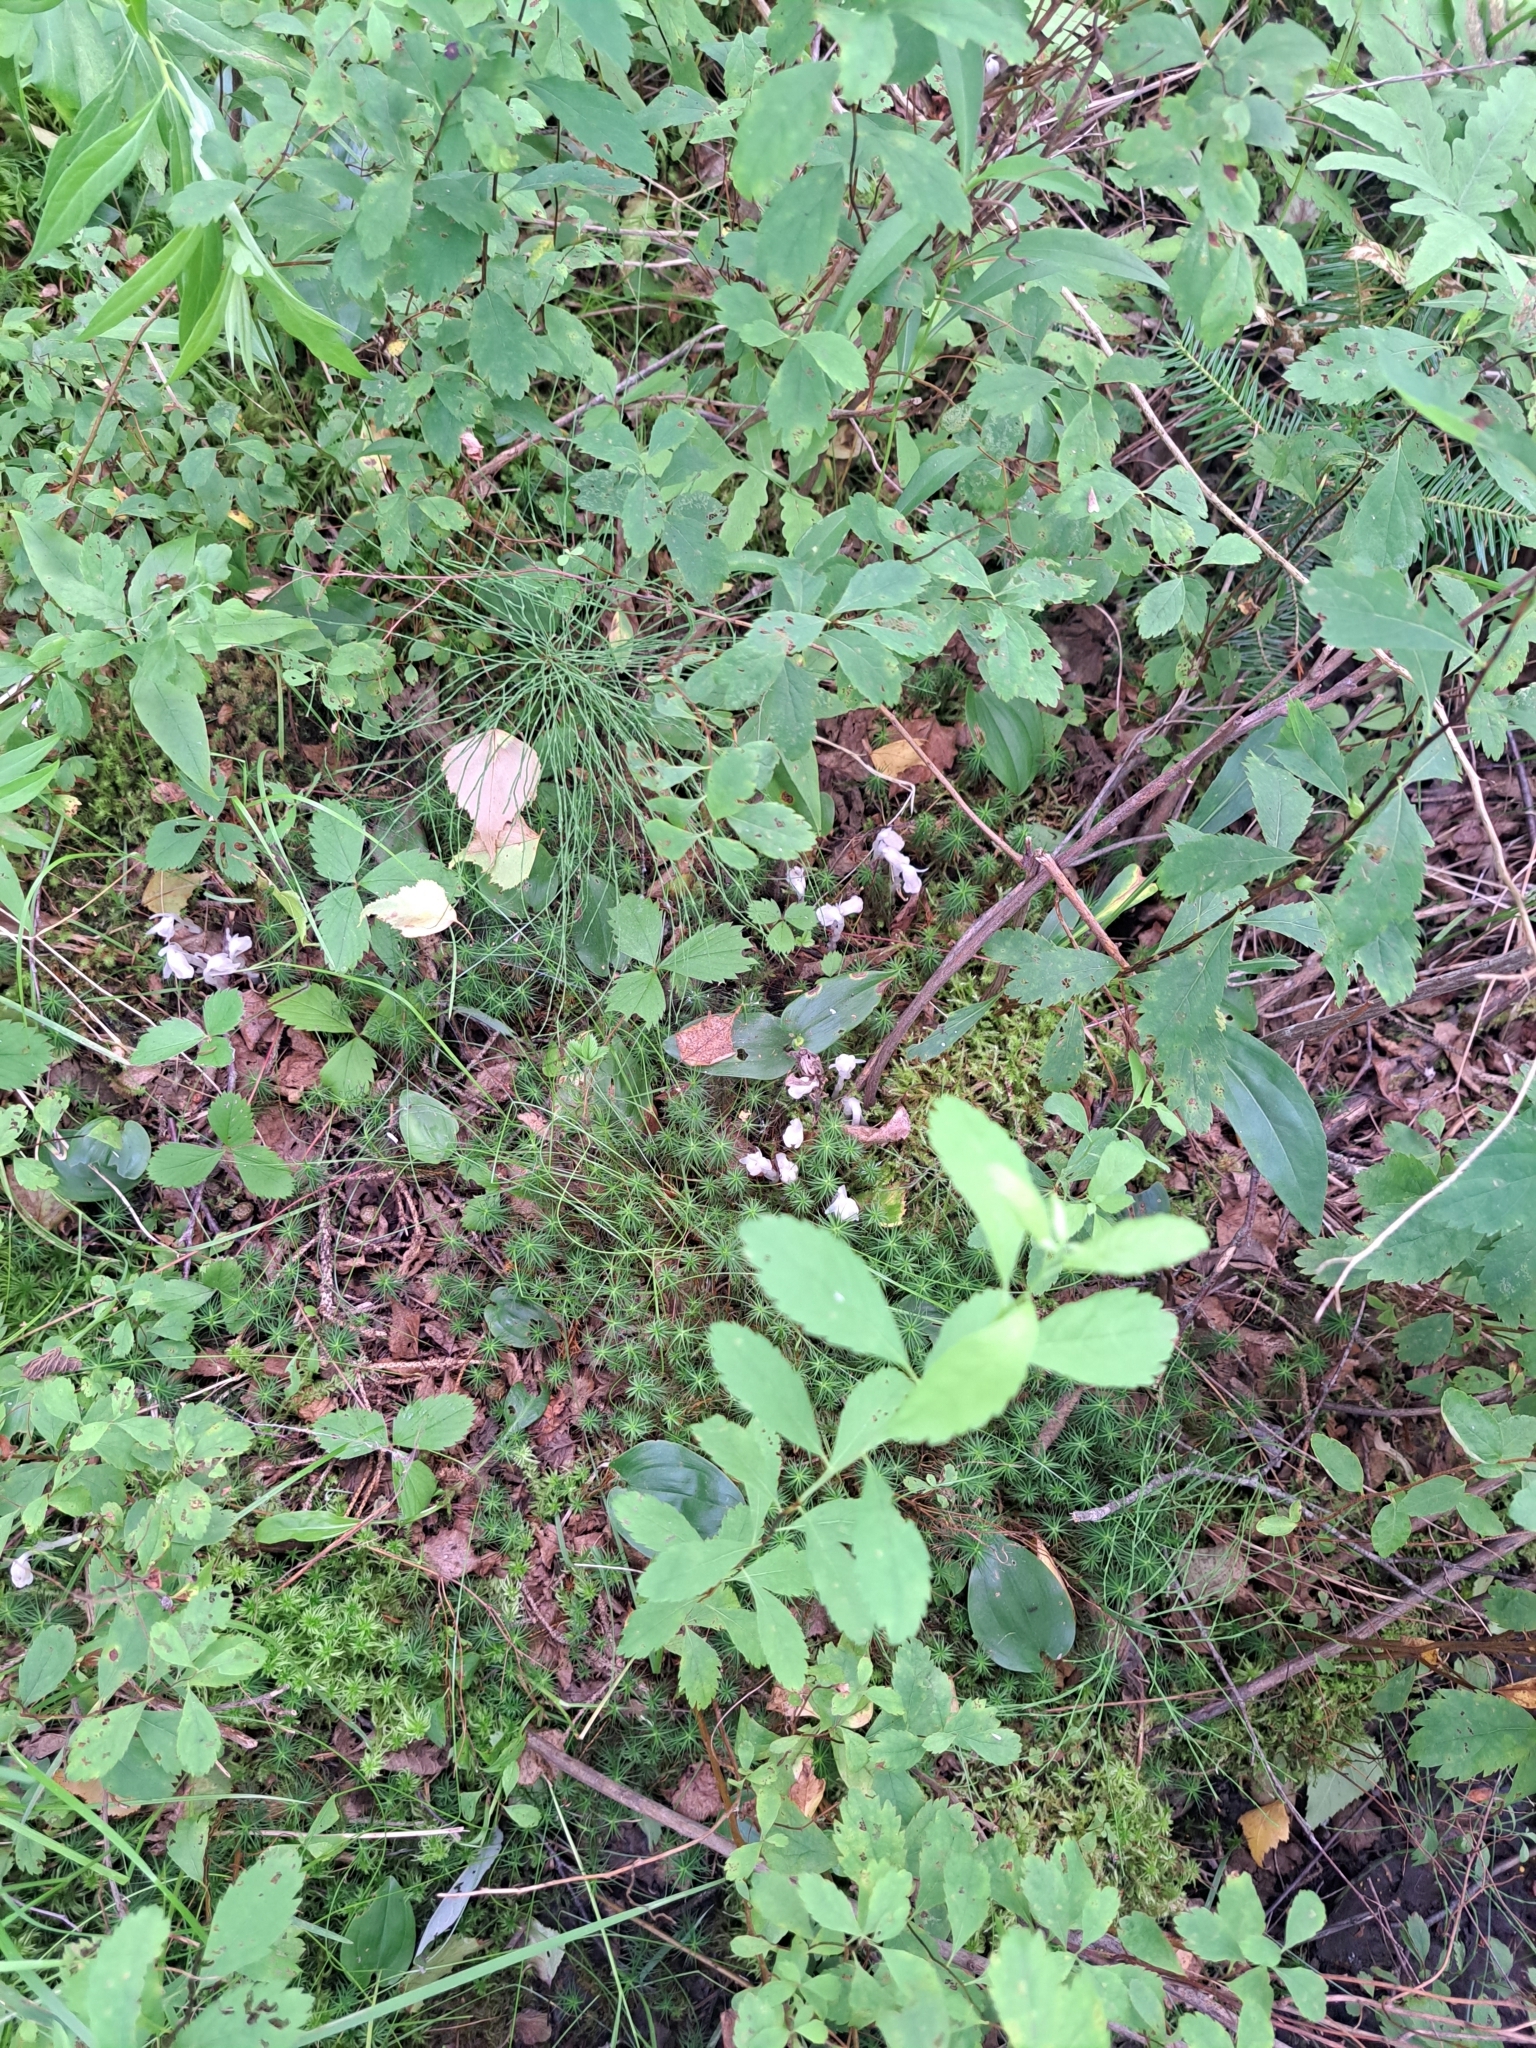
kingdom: Plantae
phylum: Tracheophyta
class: Magnoliopsida
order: Ericales
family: Ericaceae
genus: Monotropa
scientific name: Monotropa uniflora
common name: Convulsion root
